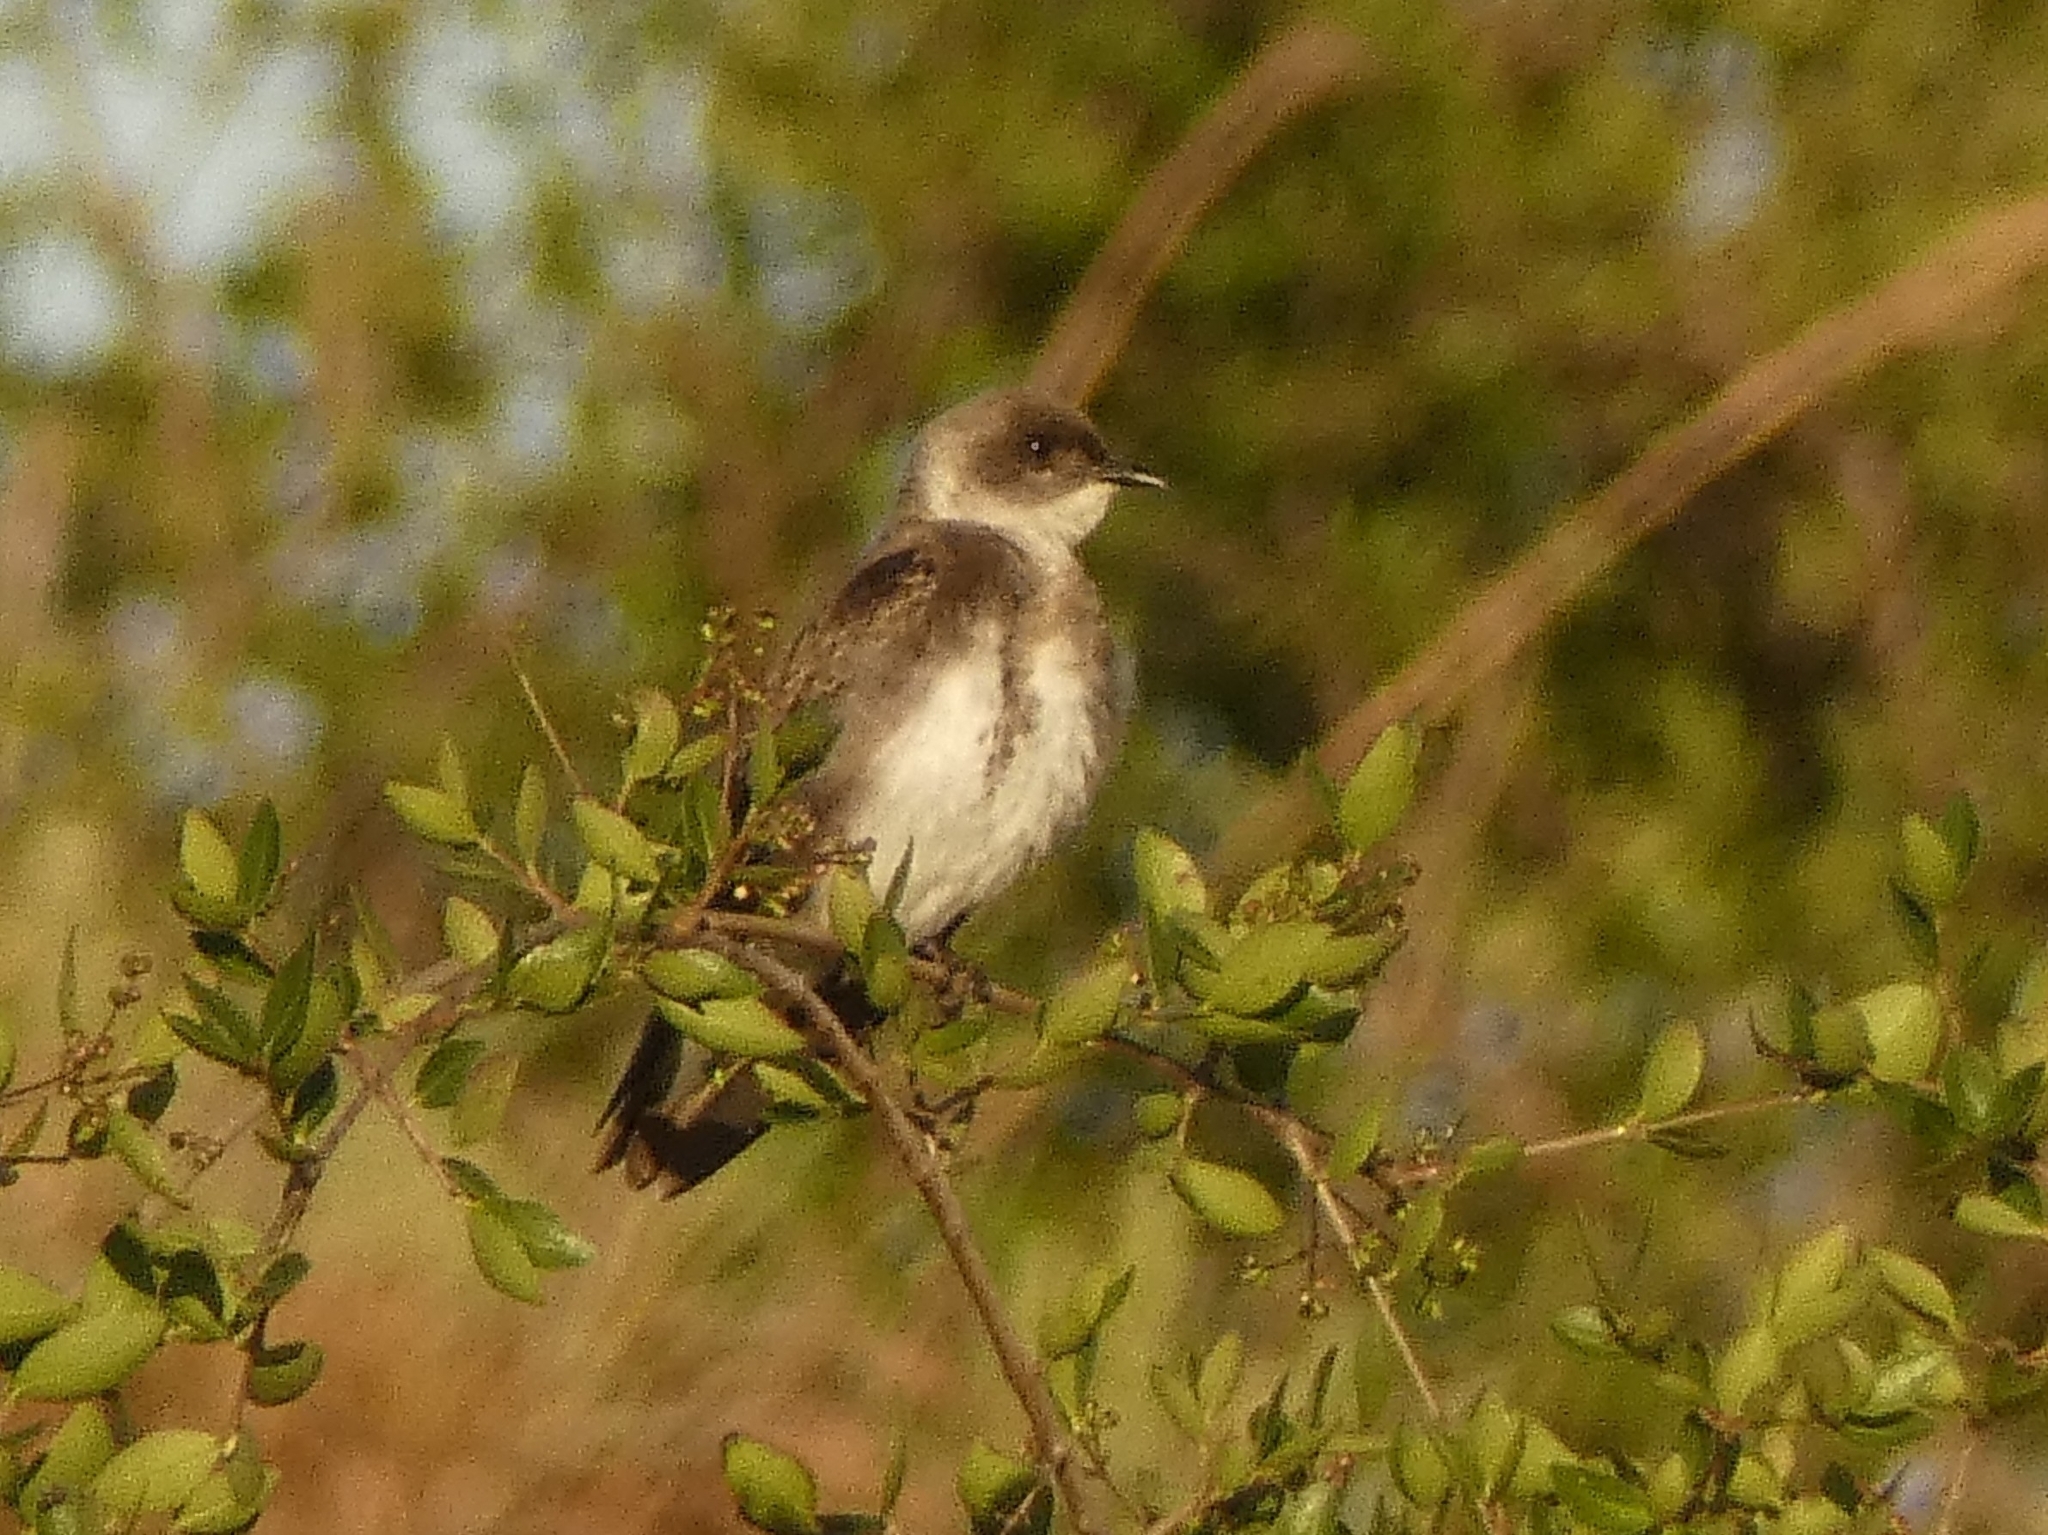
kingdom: Animalia
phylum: Chordata
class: Aves
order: Passeriformes
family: Hirundinidae
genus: Progne
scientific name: Progne tapera
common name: Brown-chested martin
